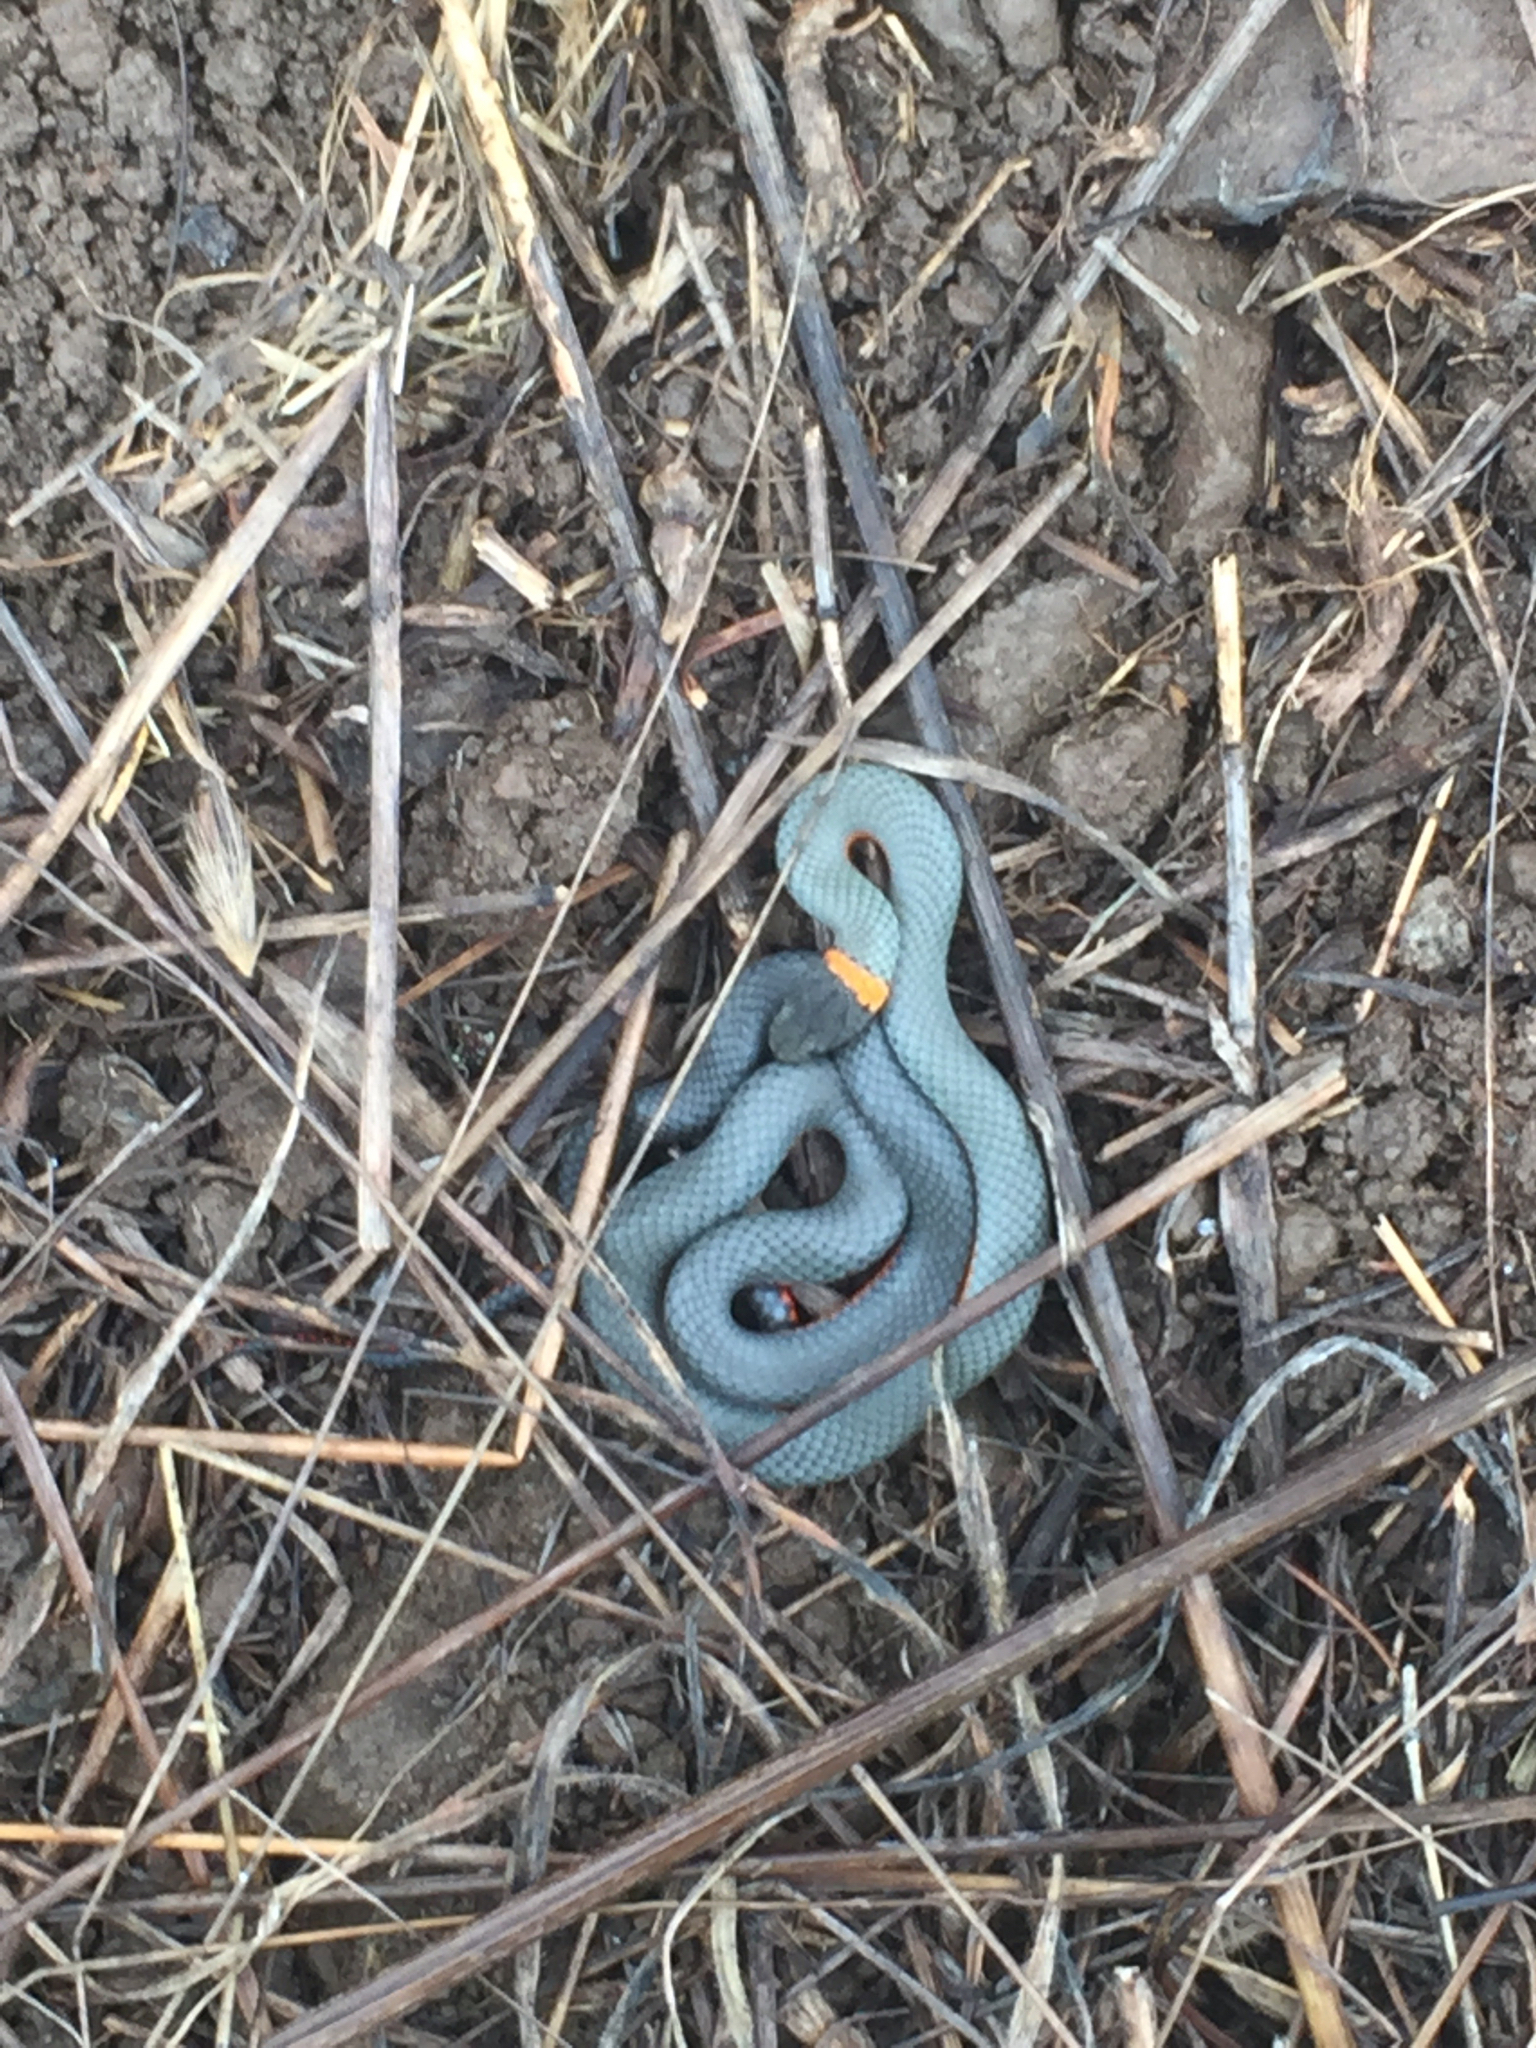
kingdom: Animalia
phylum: Chordata
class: Squamata
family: Colubridae
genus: Diadophis
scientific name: Diadophis punctatus
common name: Ringneck snake
